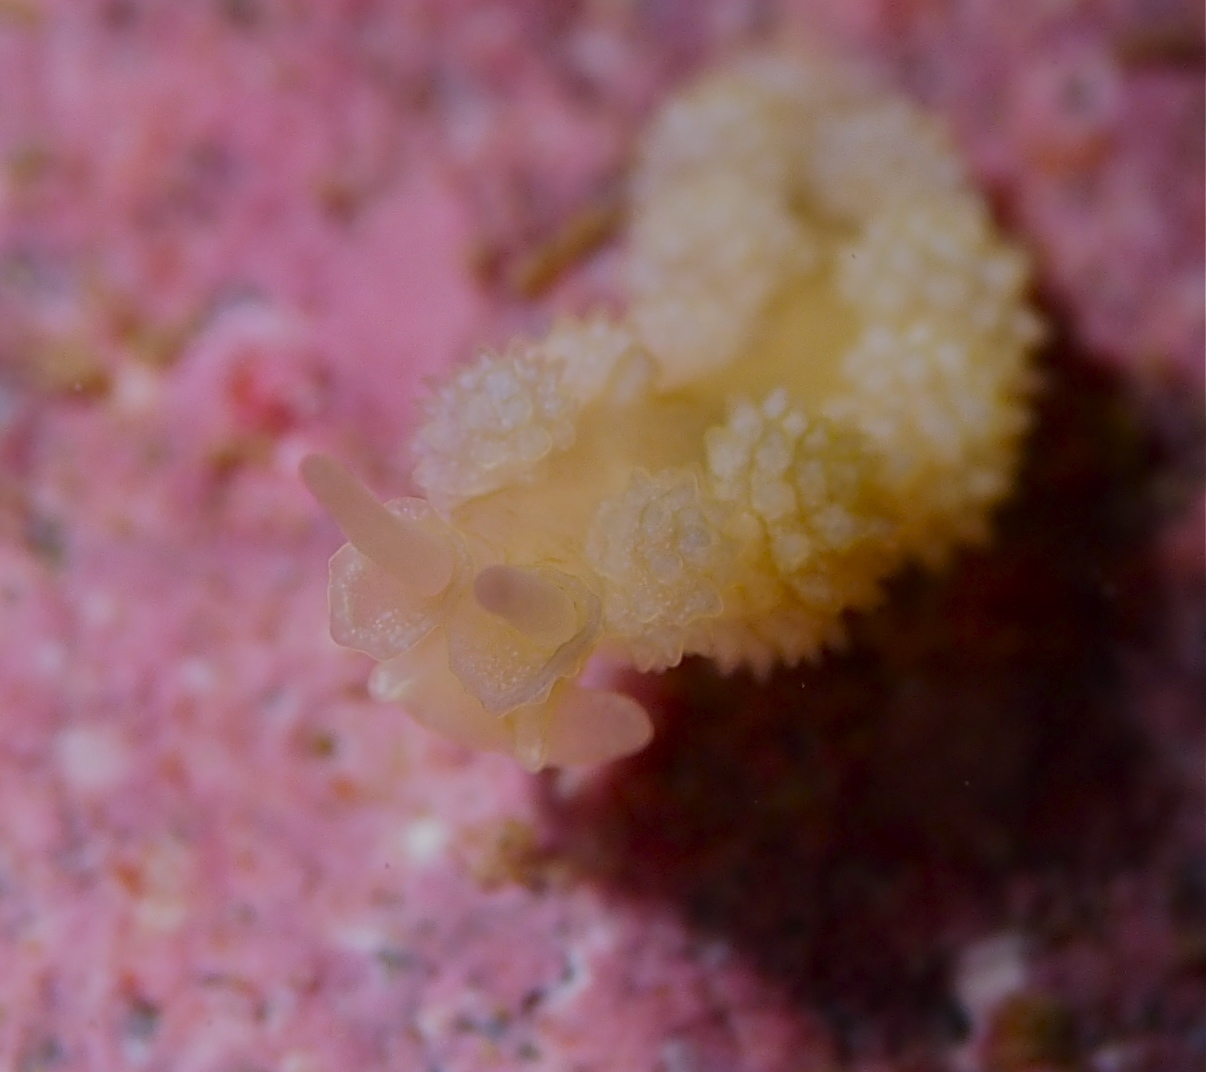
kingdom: Animalia
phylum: Mollusca
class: Gastropoda
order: Nudibranchia
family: Dotidae
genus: Doto
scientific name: Doto fragilis
